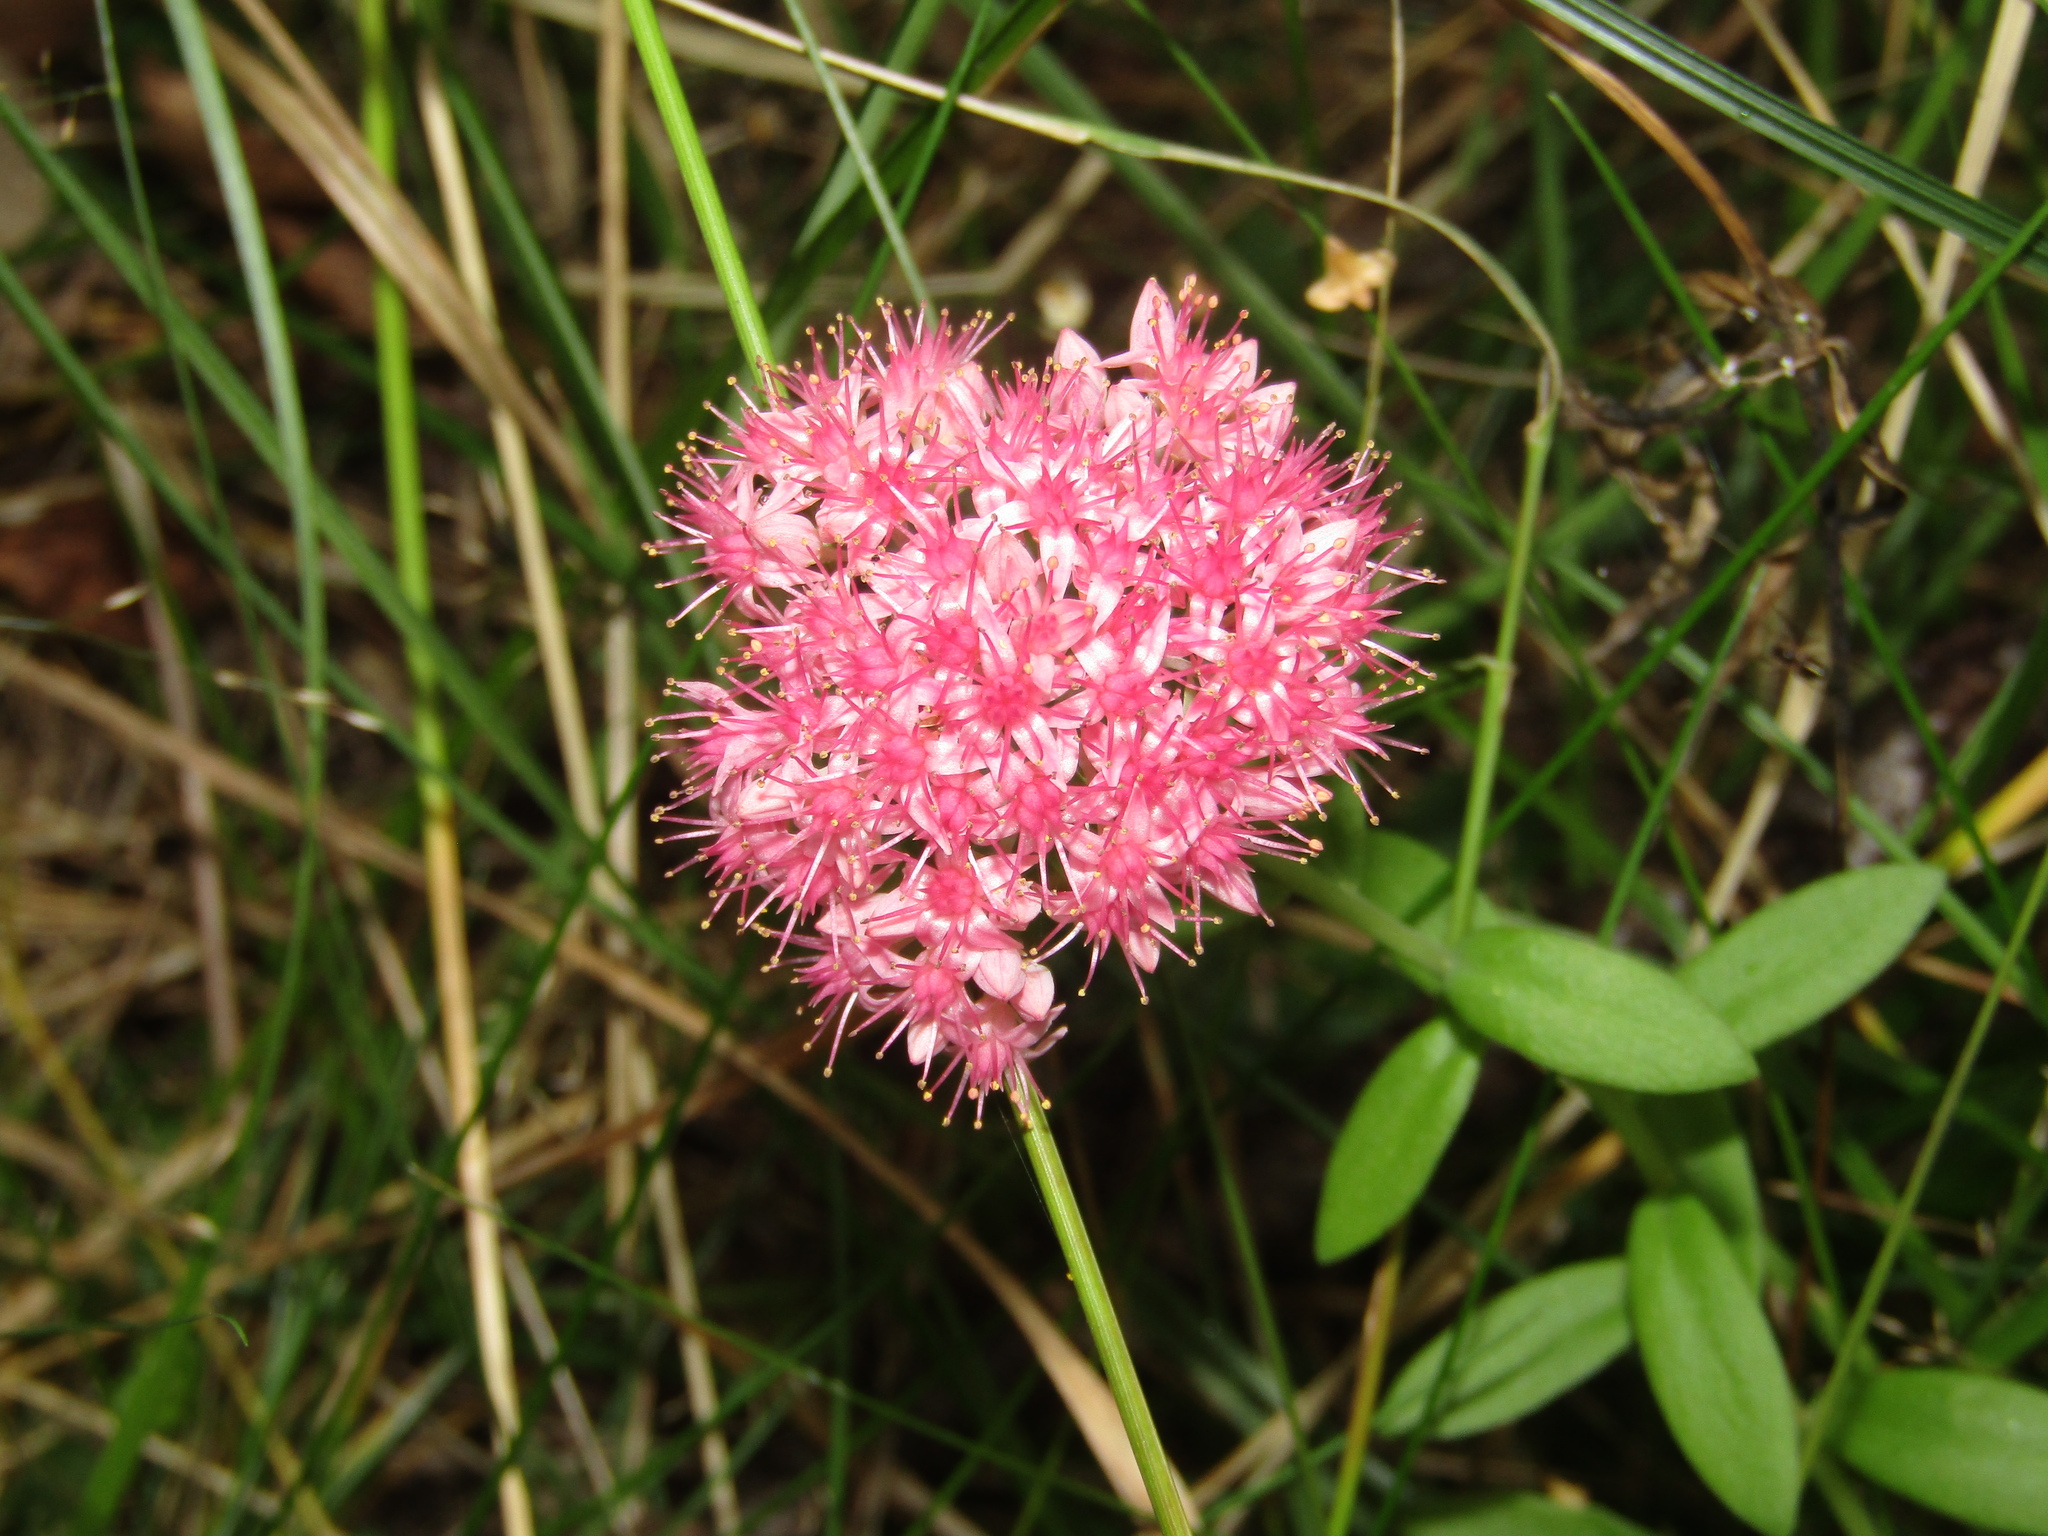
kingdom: Plantae
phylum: Tracheophyta
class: Magnoliopsida
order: Saxifragales
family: Crassulaceae
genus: Hylotelephium
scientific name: Hylotelephium telephium
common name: Live-forever
